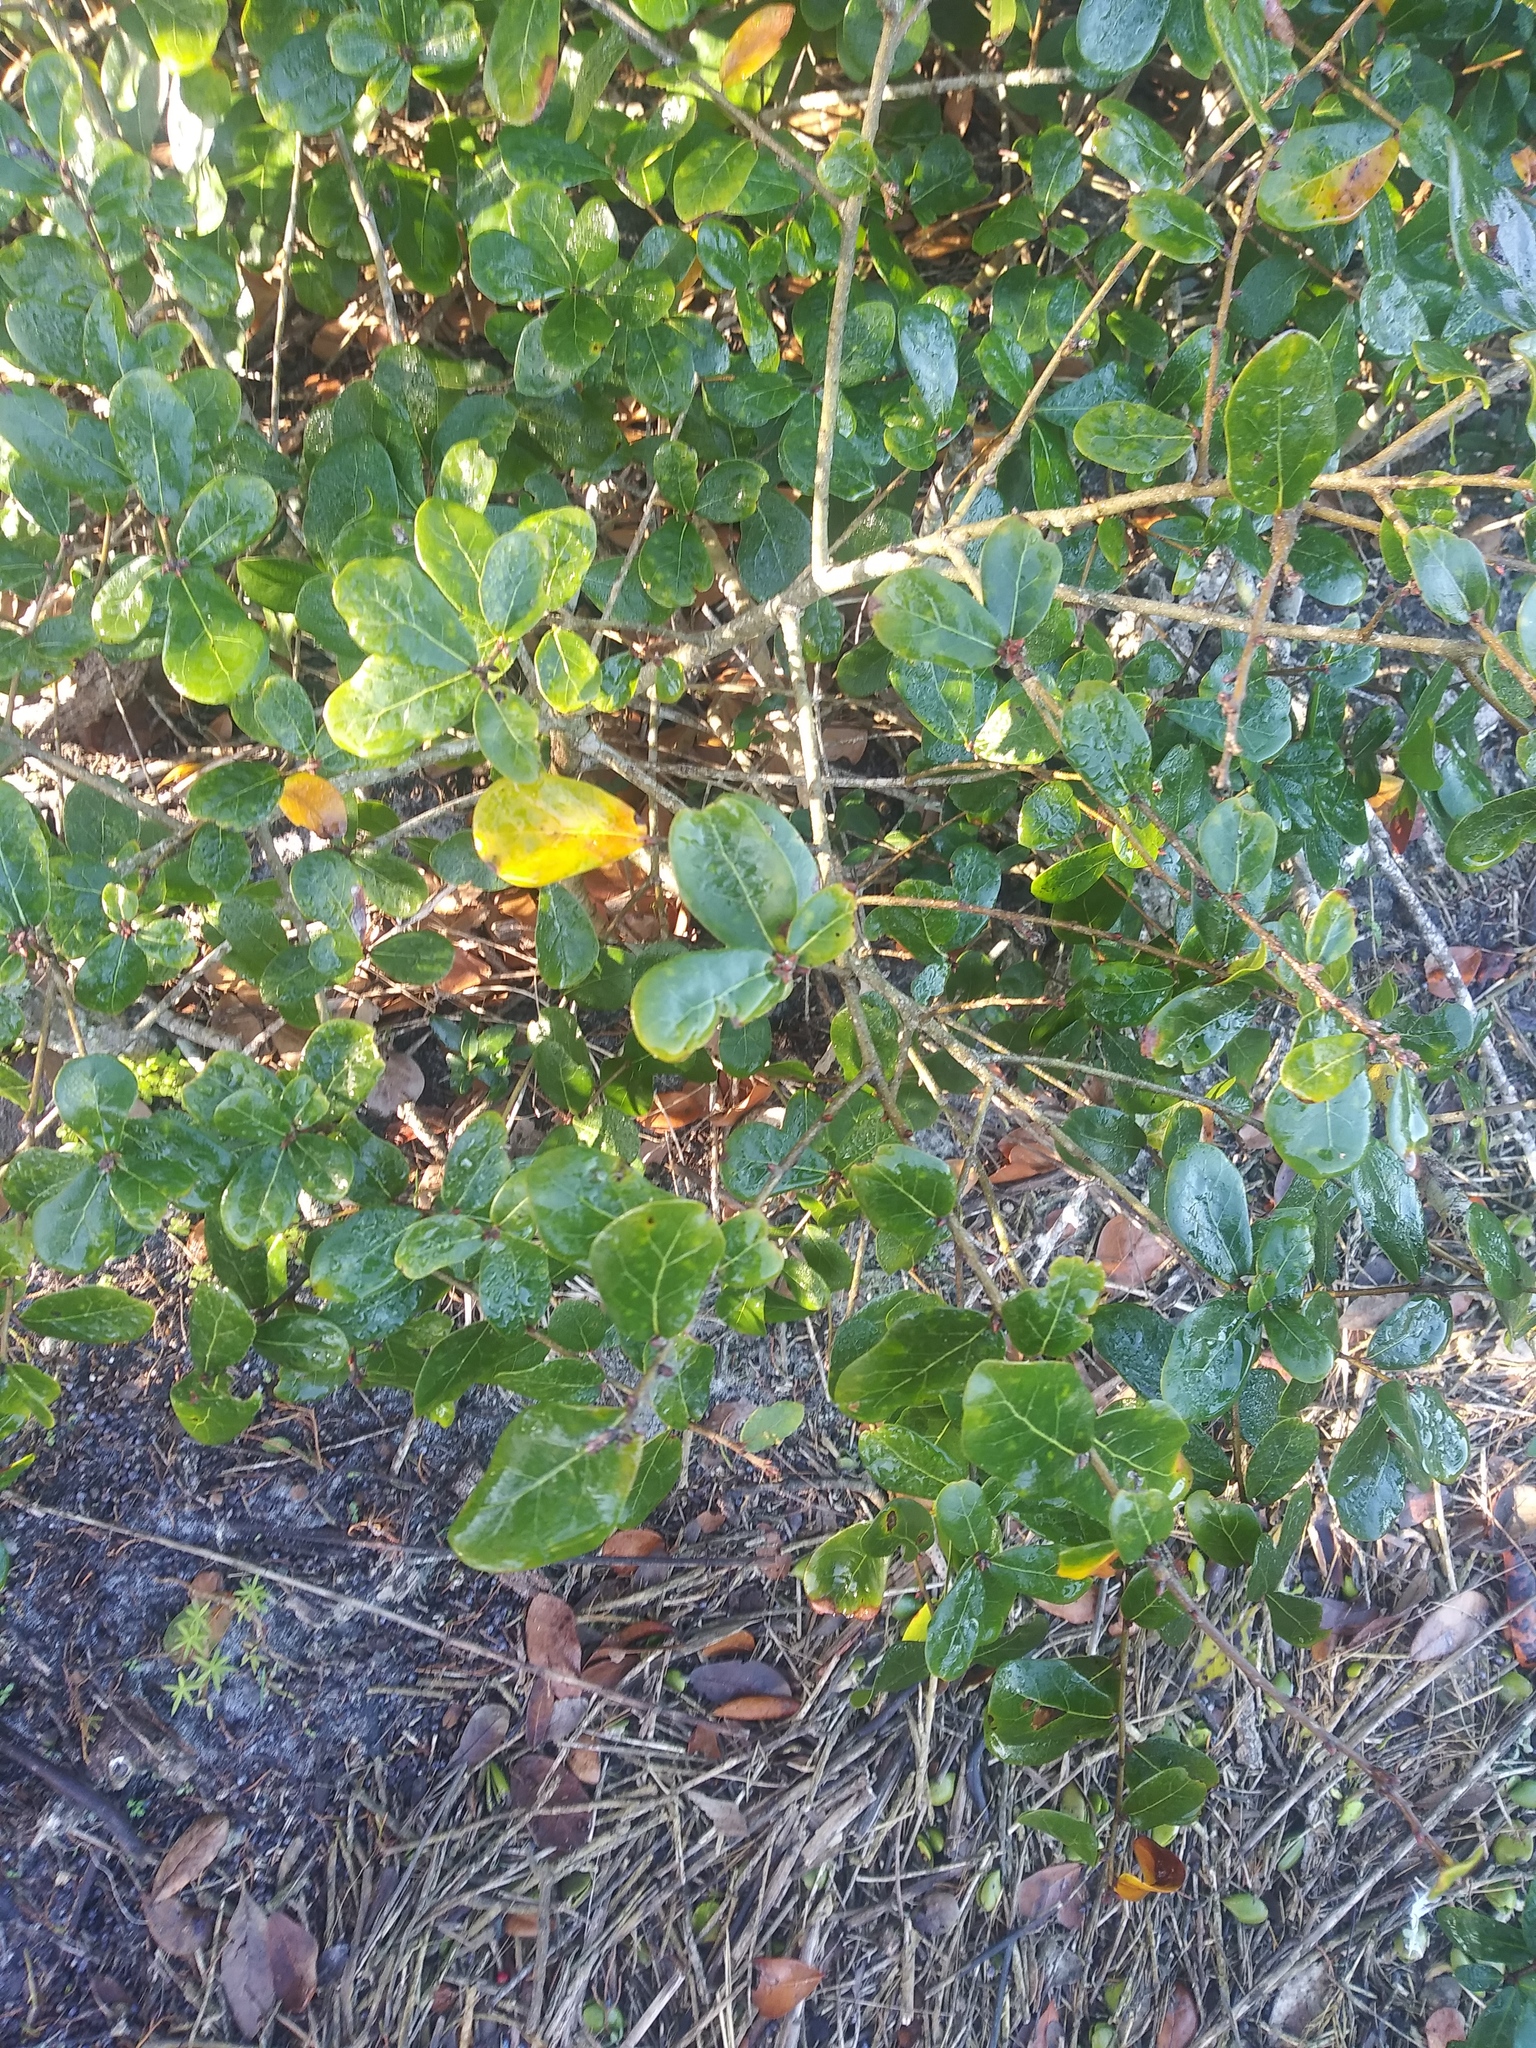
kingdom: Plantae
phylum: Tracheophyta
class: Magnoliopsida
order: Fagales
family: Fagaceae
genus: Quercus
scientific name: Quercus myrtifolia
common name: Myrtle oak
